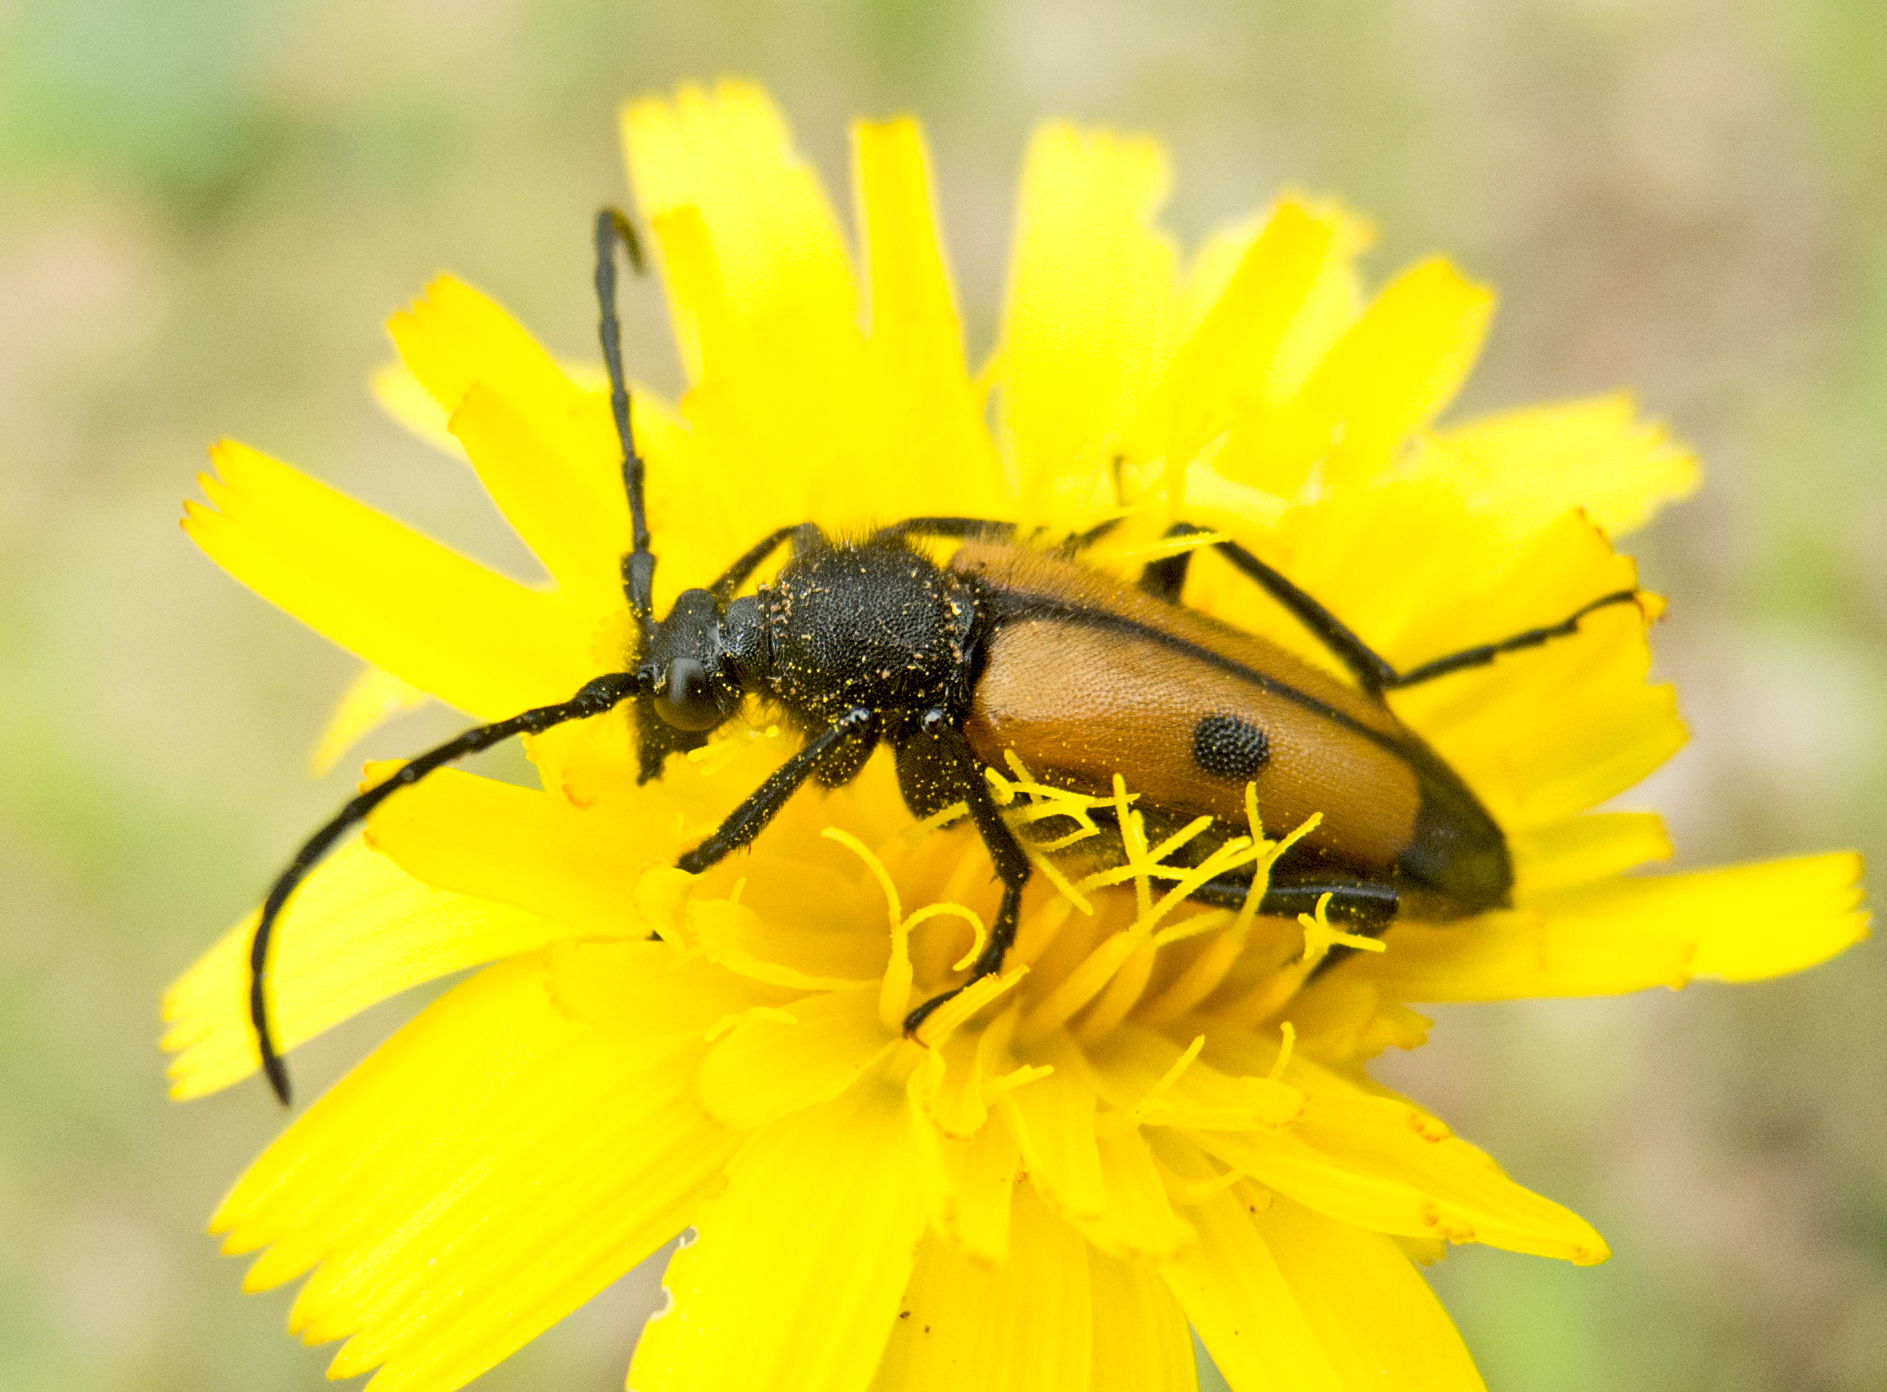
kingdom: Animalia
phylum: Arthropoda
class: Insecta
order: Coleoptera
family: Cerambycidae
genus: Vadonia
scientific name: Vadonia dojranensis
